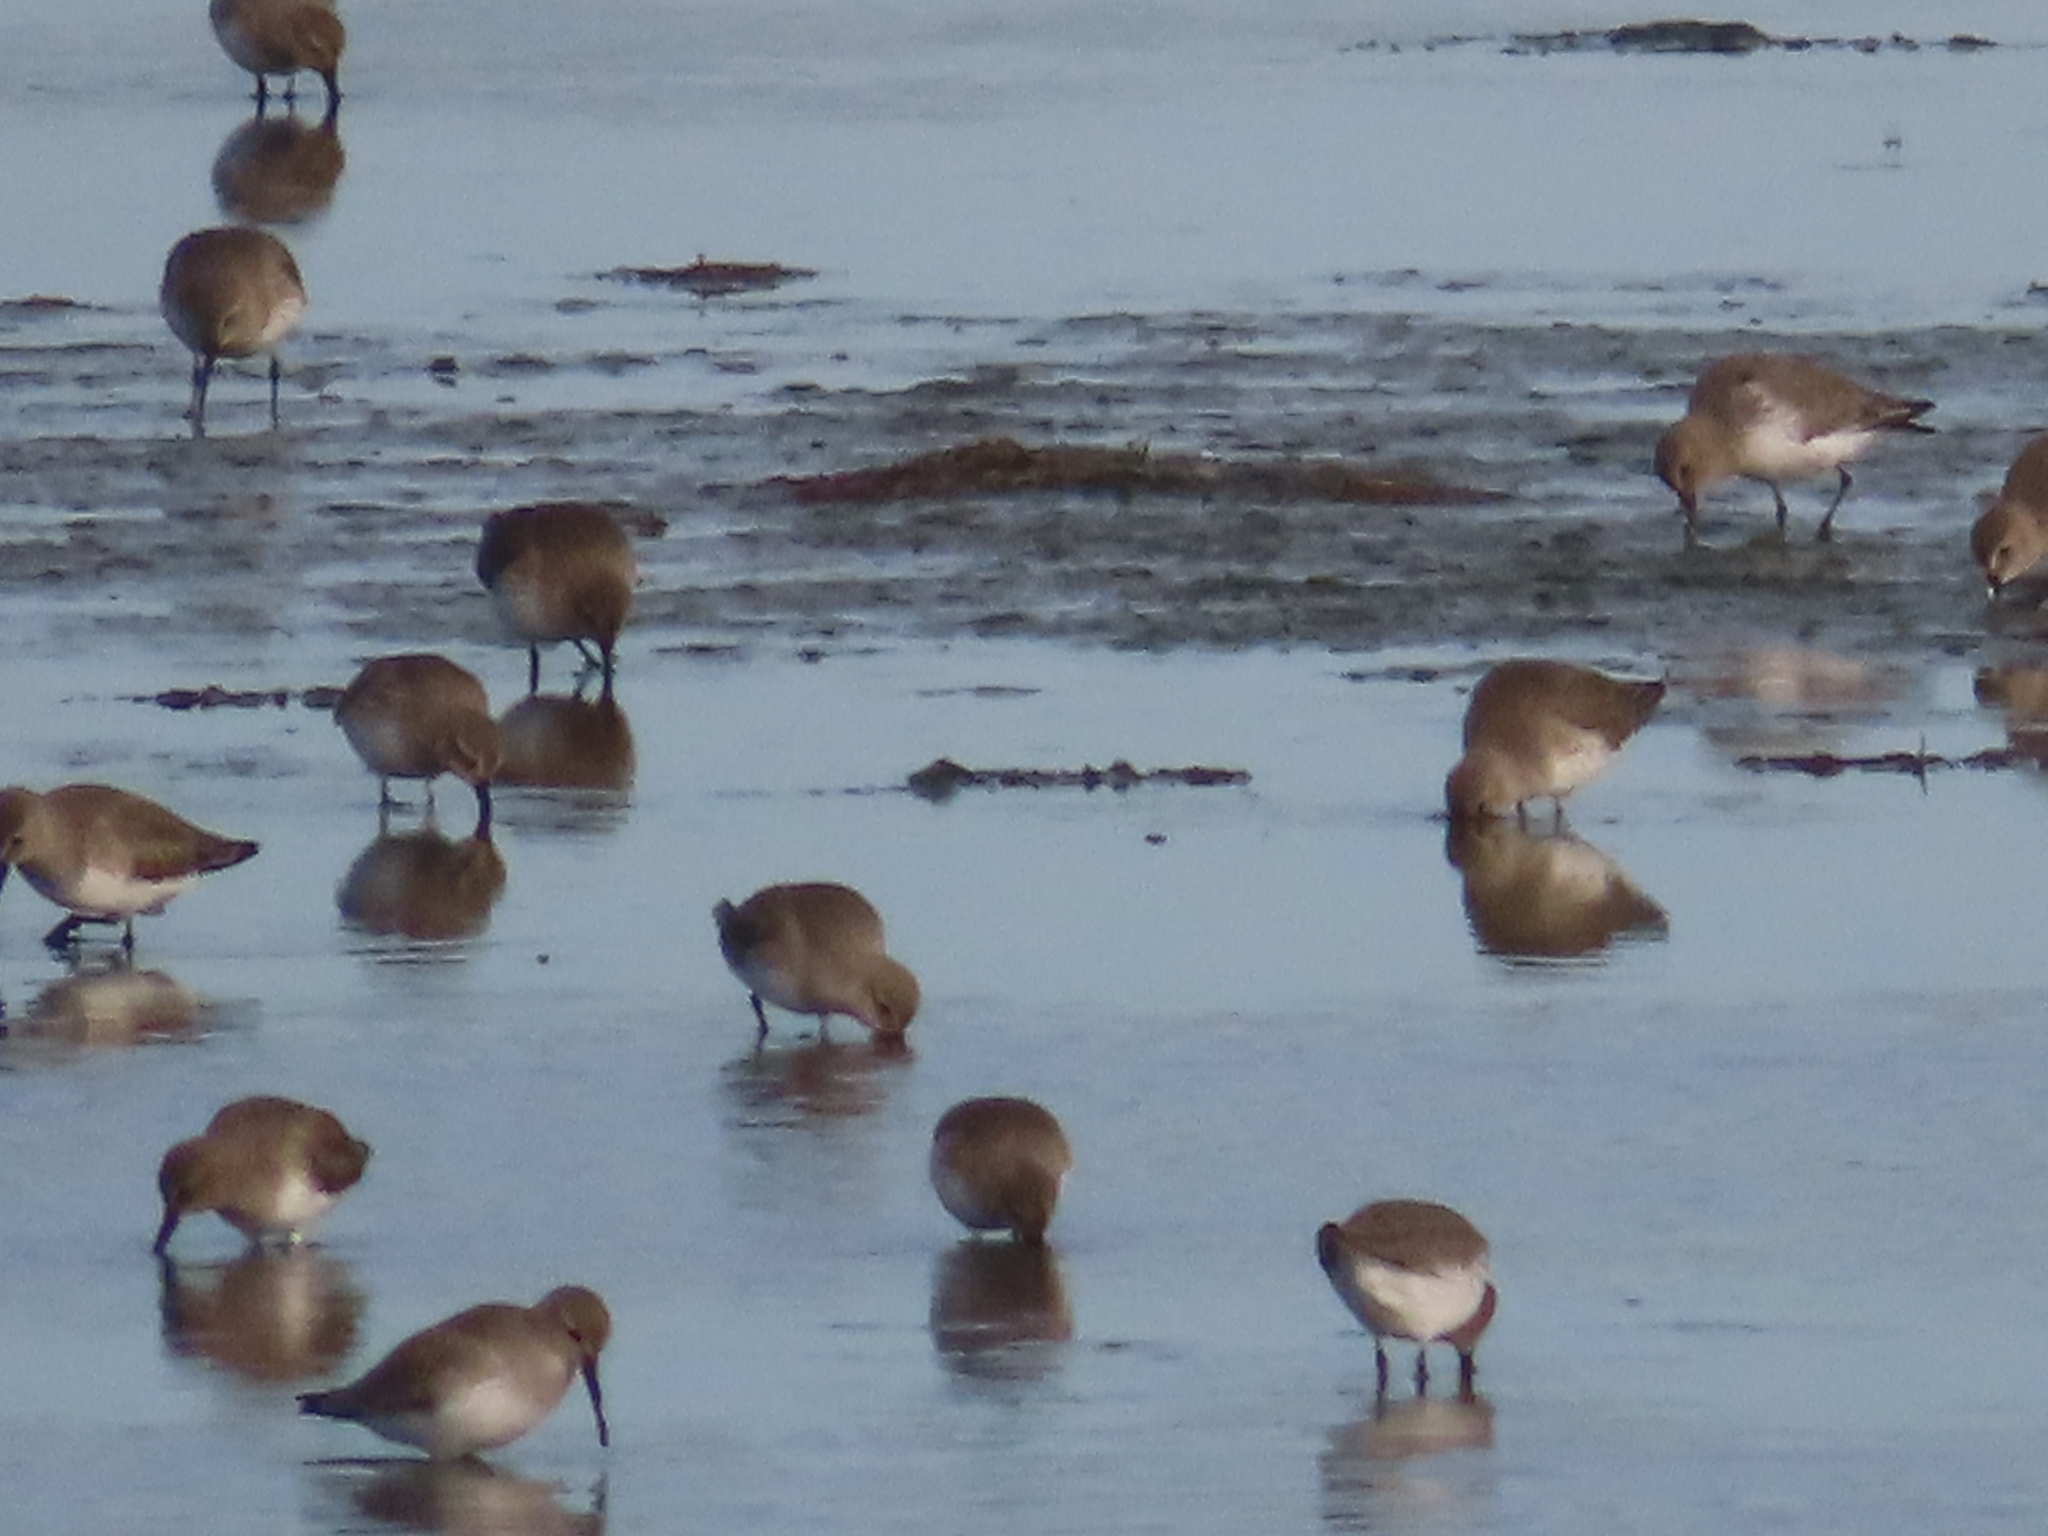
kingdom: Animalia
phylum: Chordata
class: Aves
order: Charadriiformes
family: Scolopacidae
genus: Calidris
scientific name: Calidris alpina
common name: Dunlin
